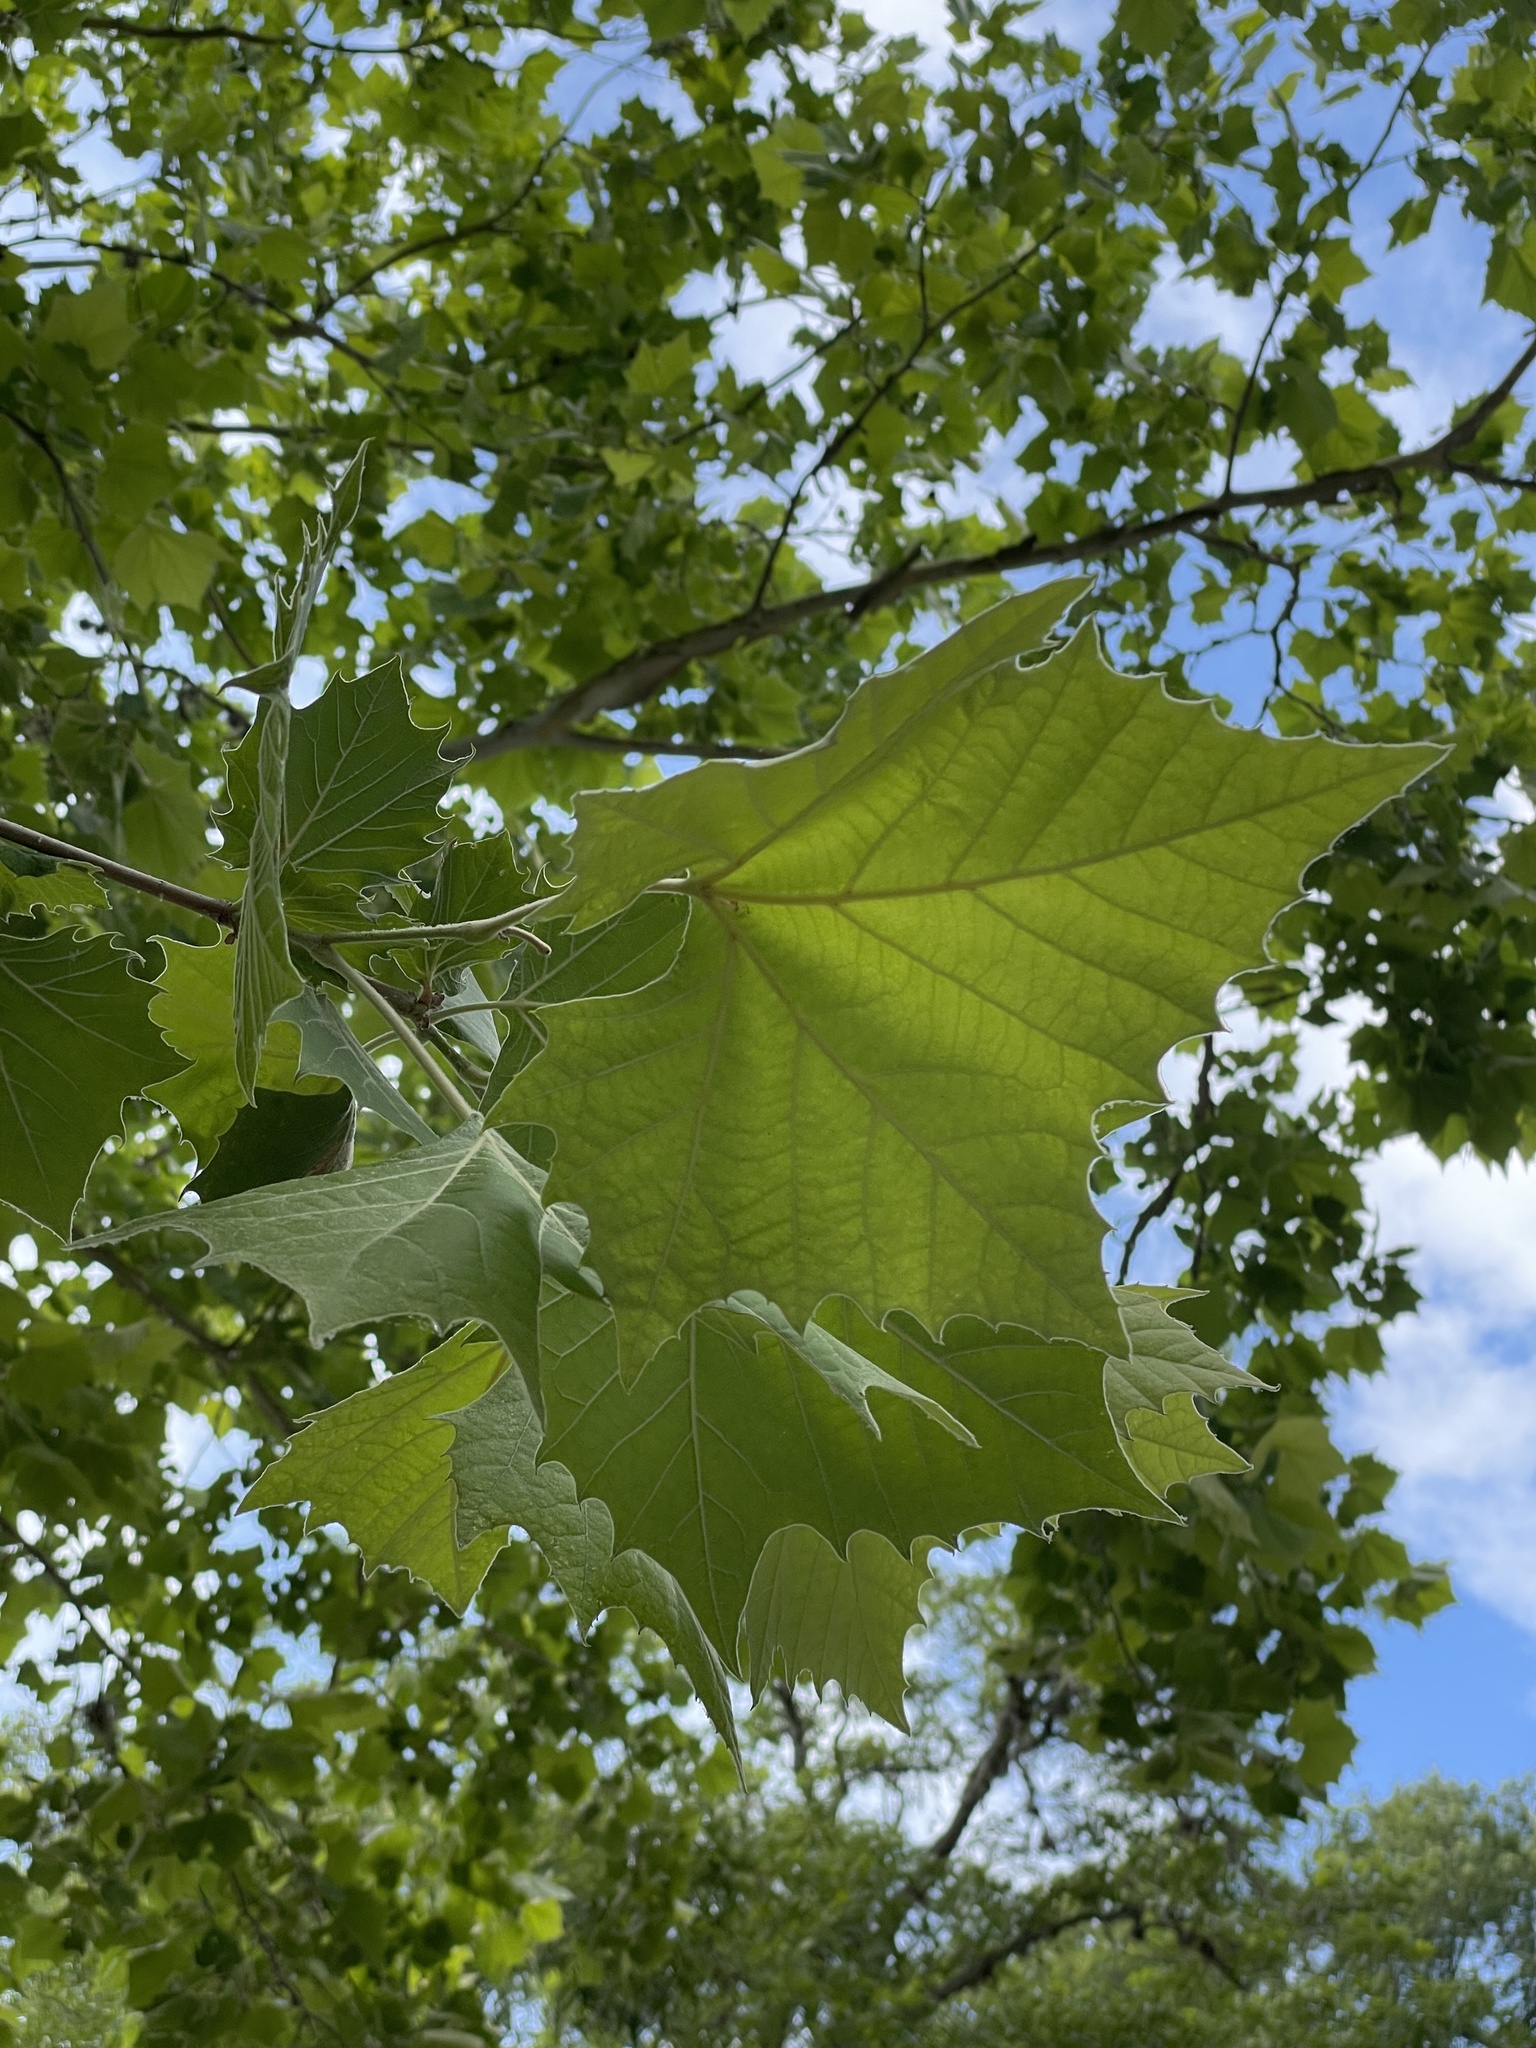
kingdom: Plantae
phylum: Tracheophyta
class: Magnoliopsida
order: Proteales
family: Platanaceae
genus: Platanus
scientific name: Platanus occidentalis
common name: American sycamore
